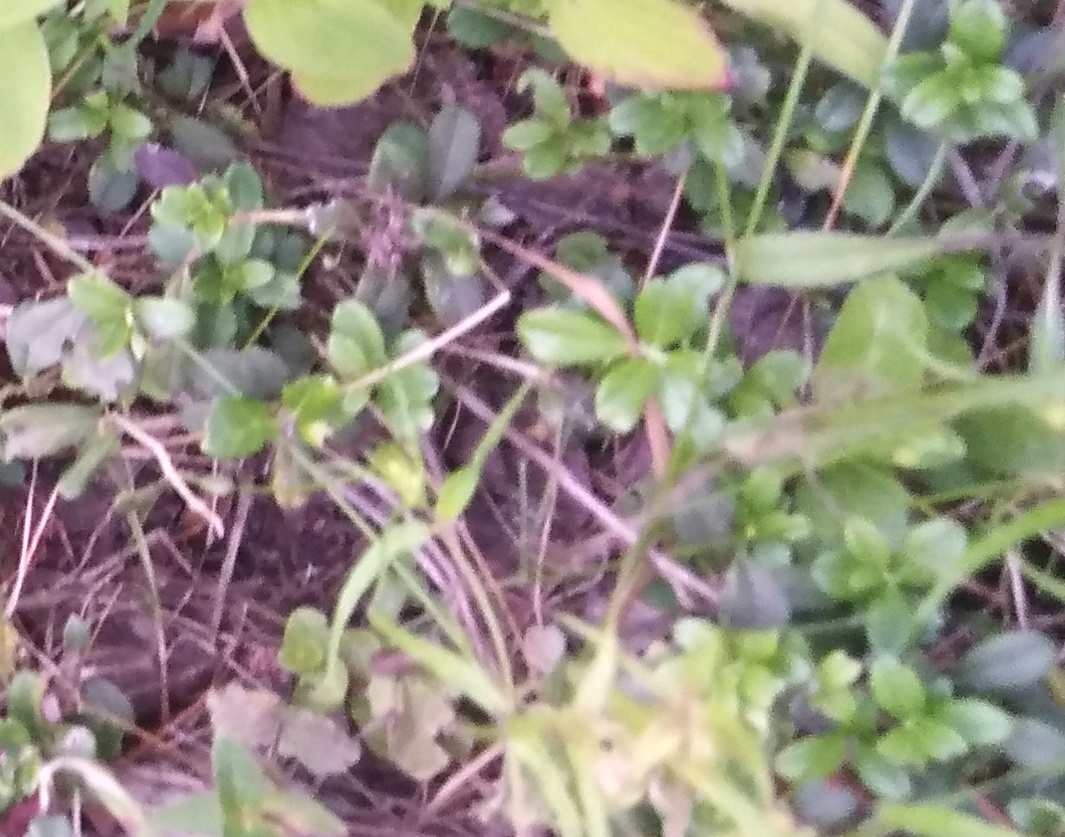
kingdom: Plantae
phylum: Tracheophyta
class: Magnoliopsida
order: Ericales
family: Ericaceae
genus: Vaccinium
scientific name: Vaccinium vitis-idaea
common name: Cowberry
